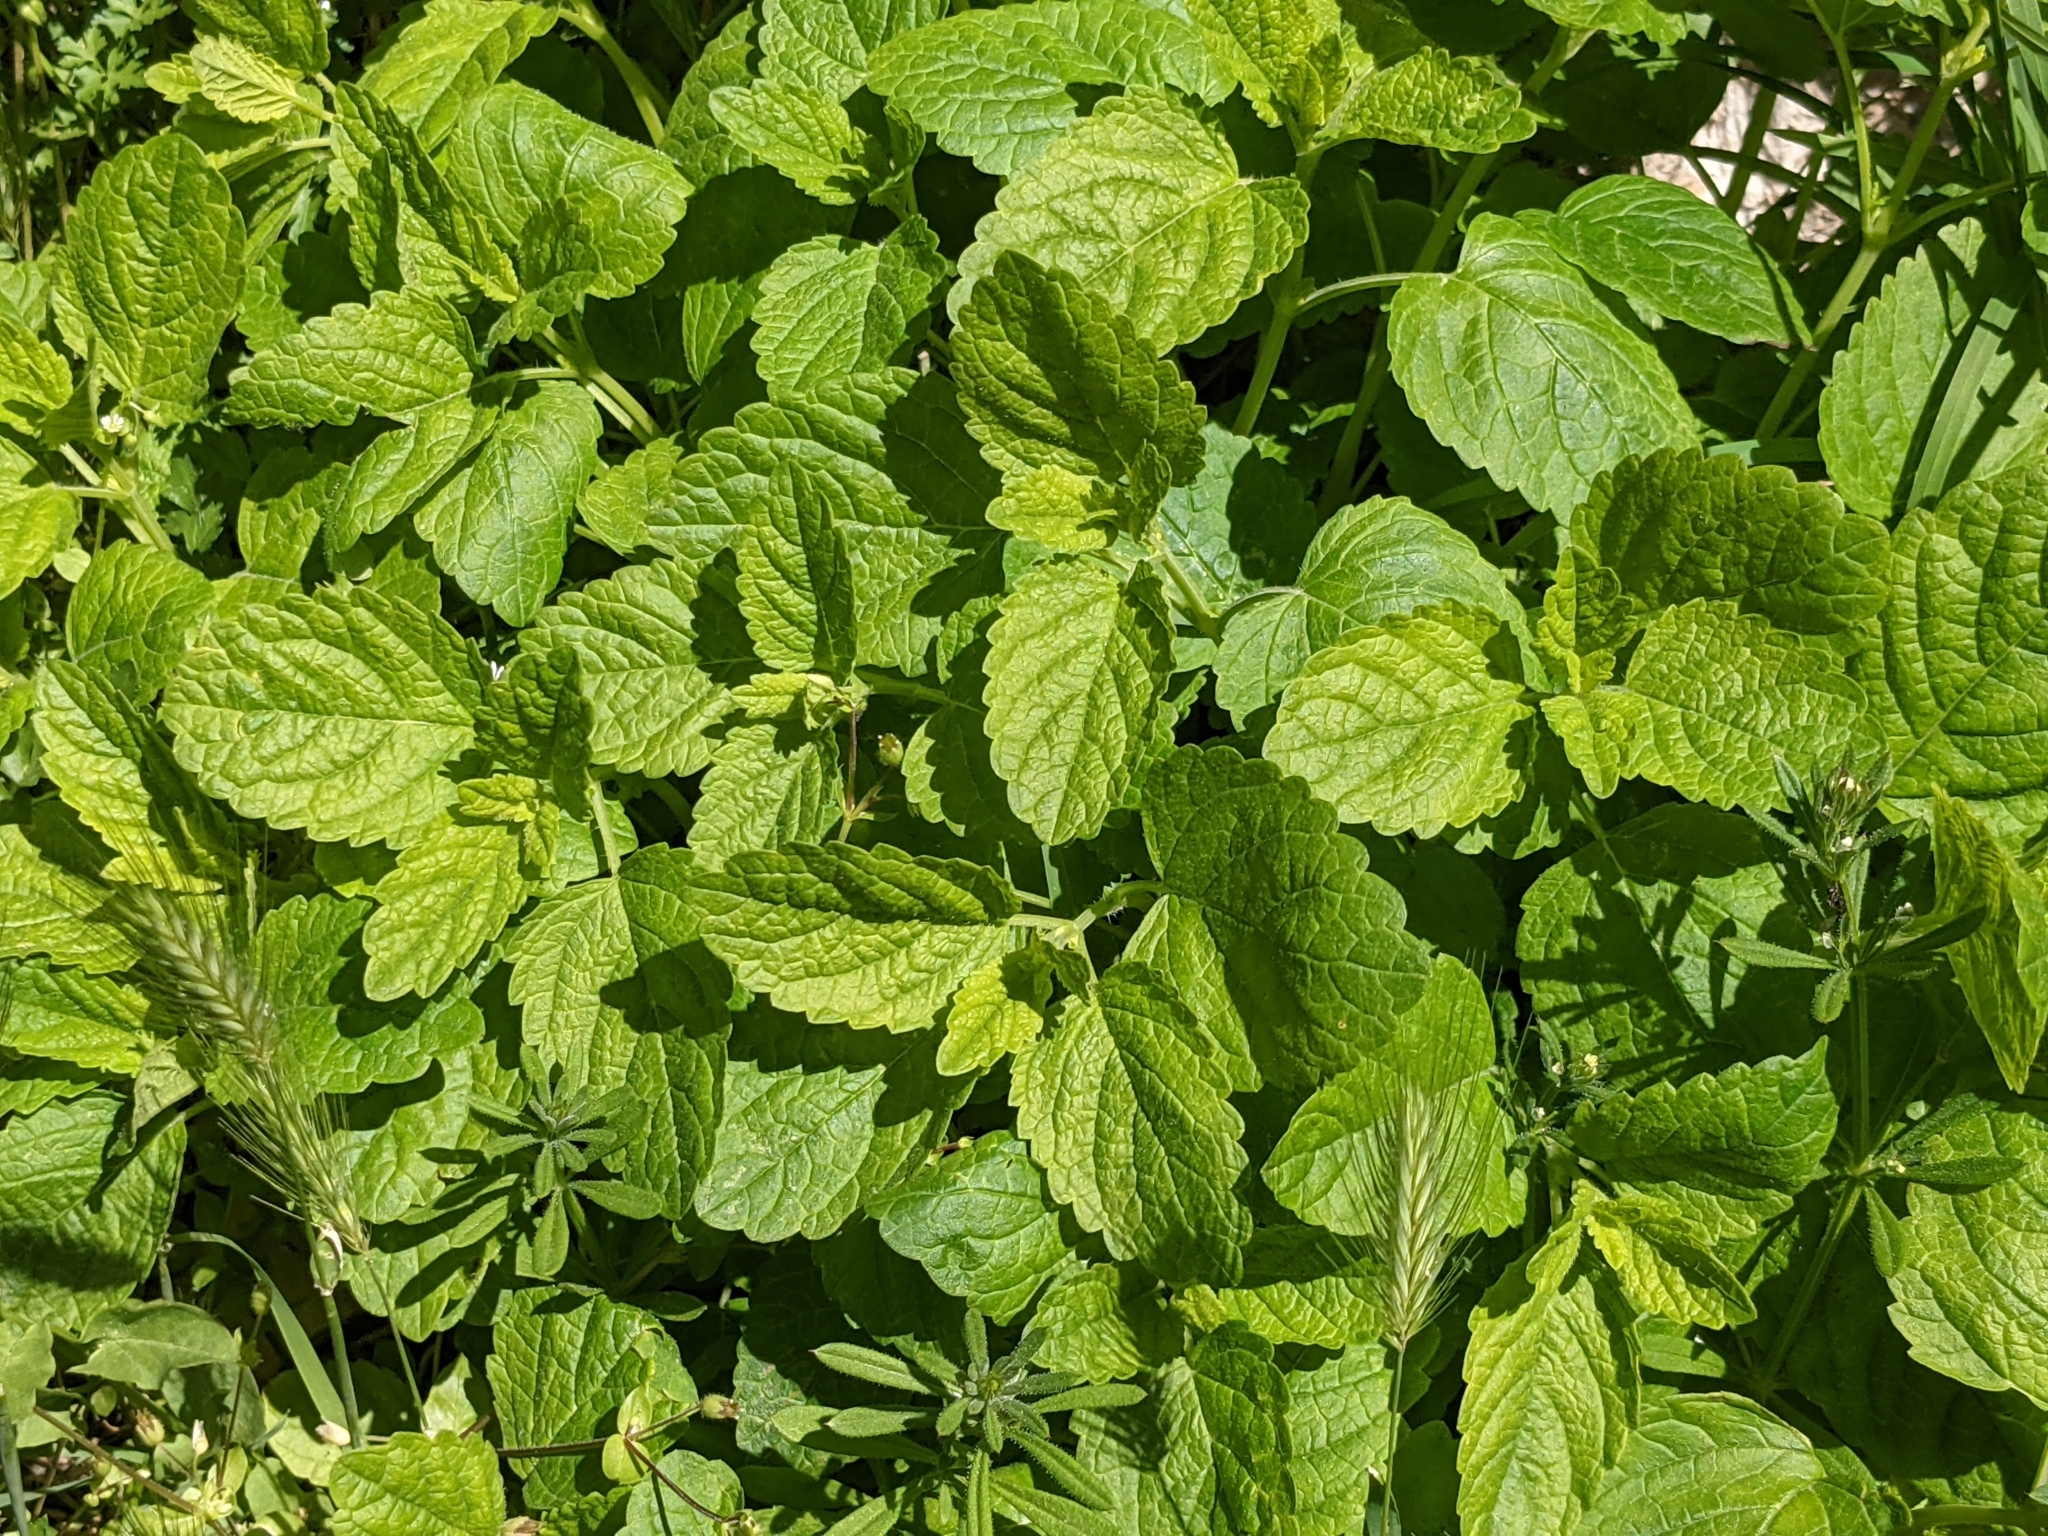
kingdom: Plantae
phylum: Tracheophyta
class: Magnoliopsida
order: Lamiales
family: Lamiaceae
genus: Melissa
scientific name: Melissa officinalis
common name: Balm
